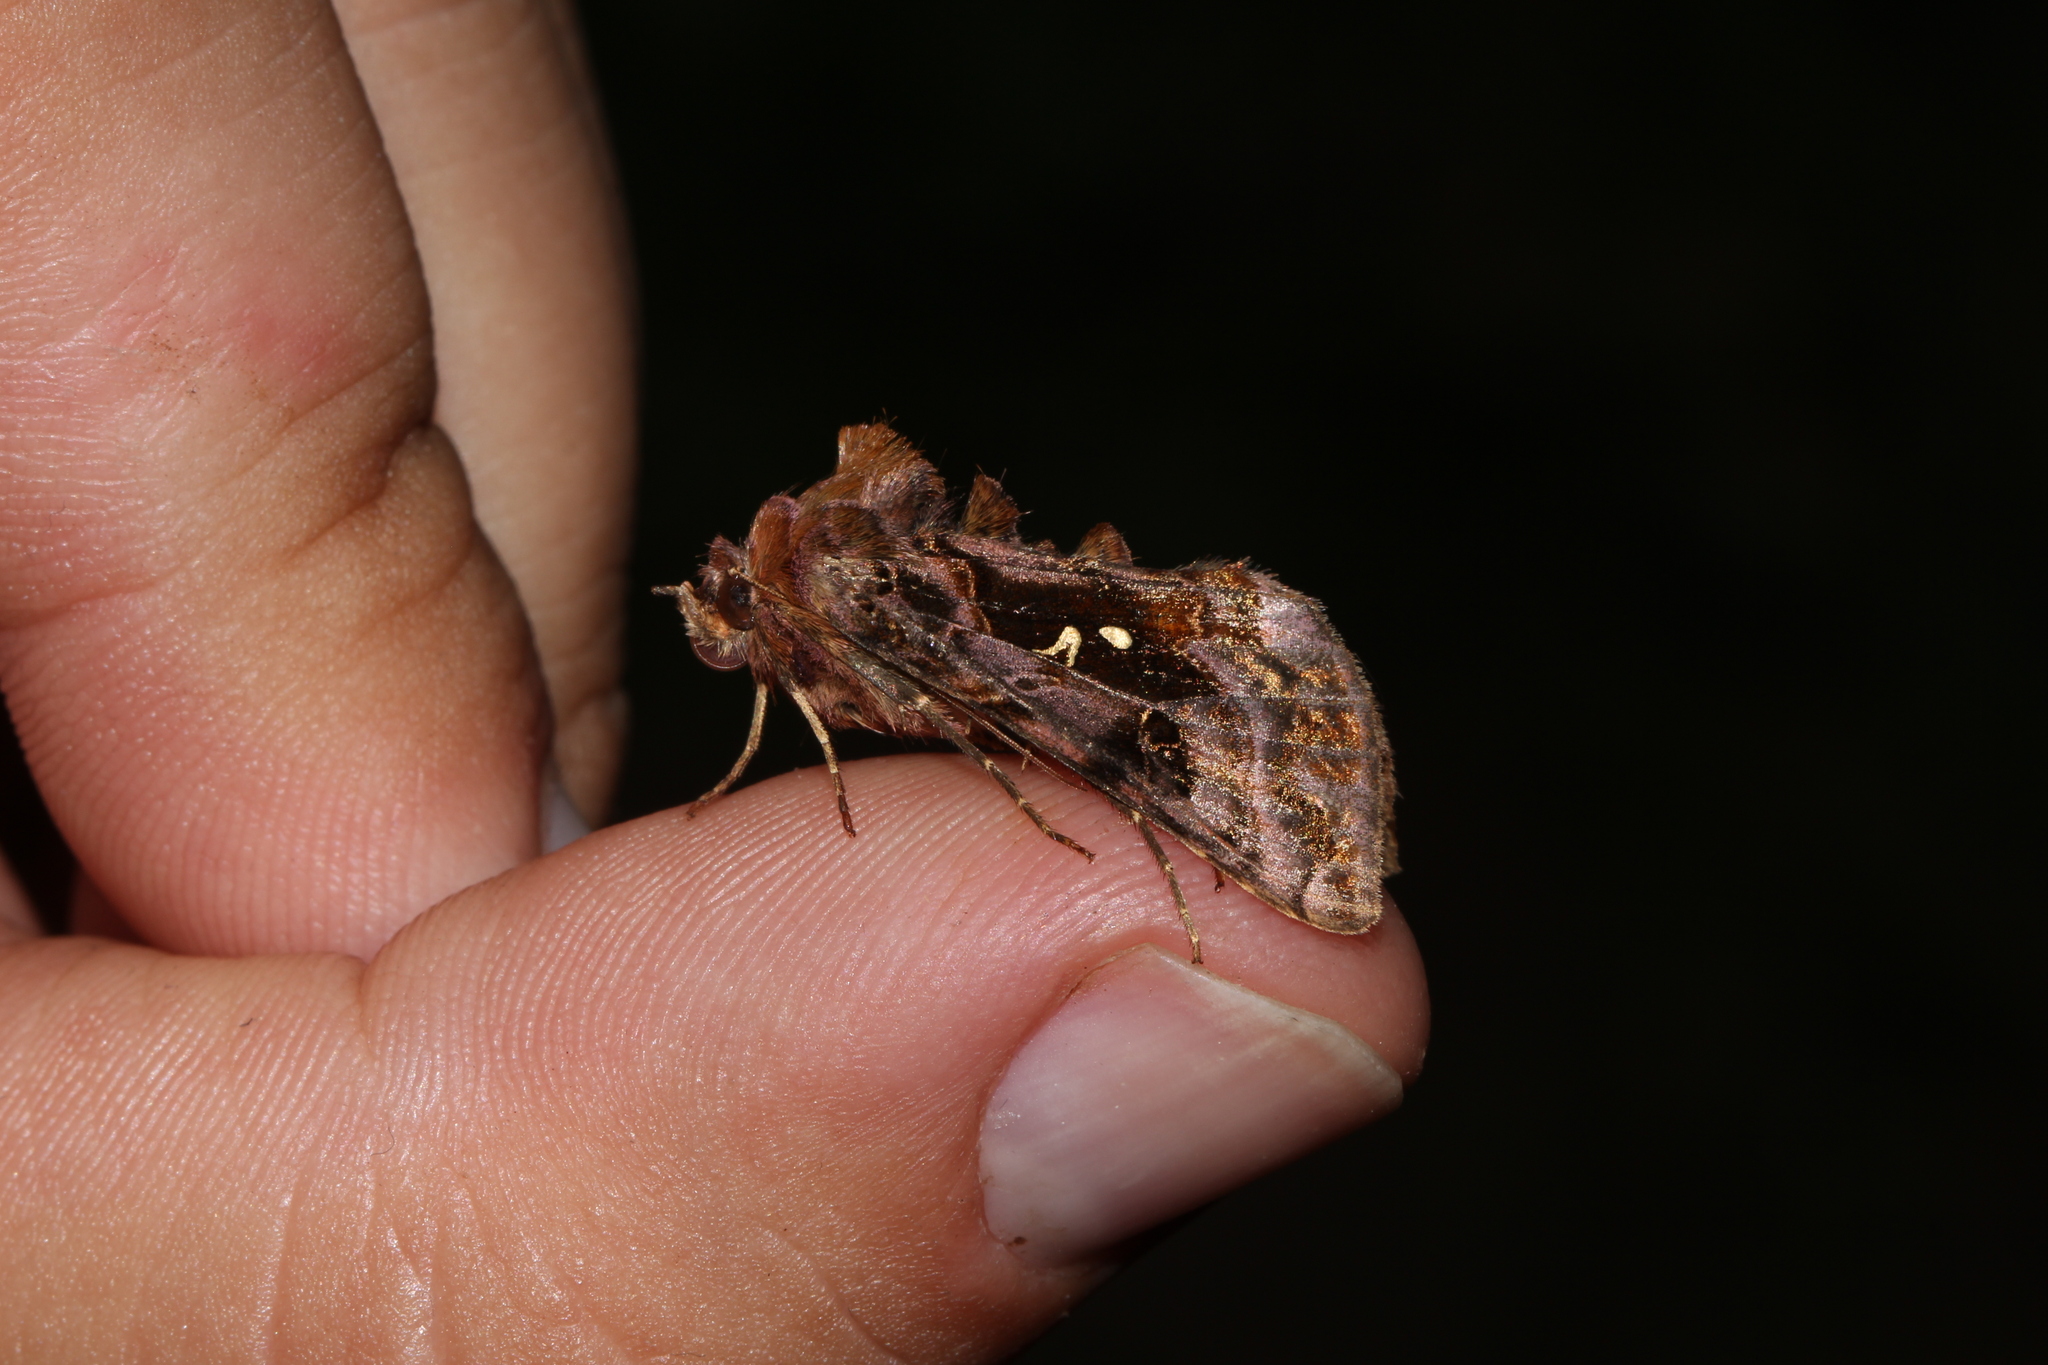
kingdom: Animalia
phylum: Arthropoda
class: Insecta
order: Lepidoptera
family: Noctuidae
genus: Autographa
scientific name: Autographa pulchrina
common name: Beautiful golden y
